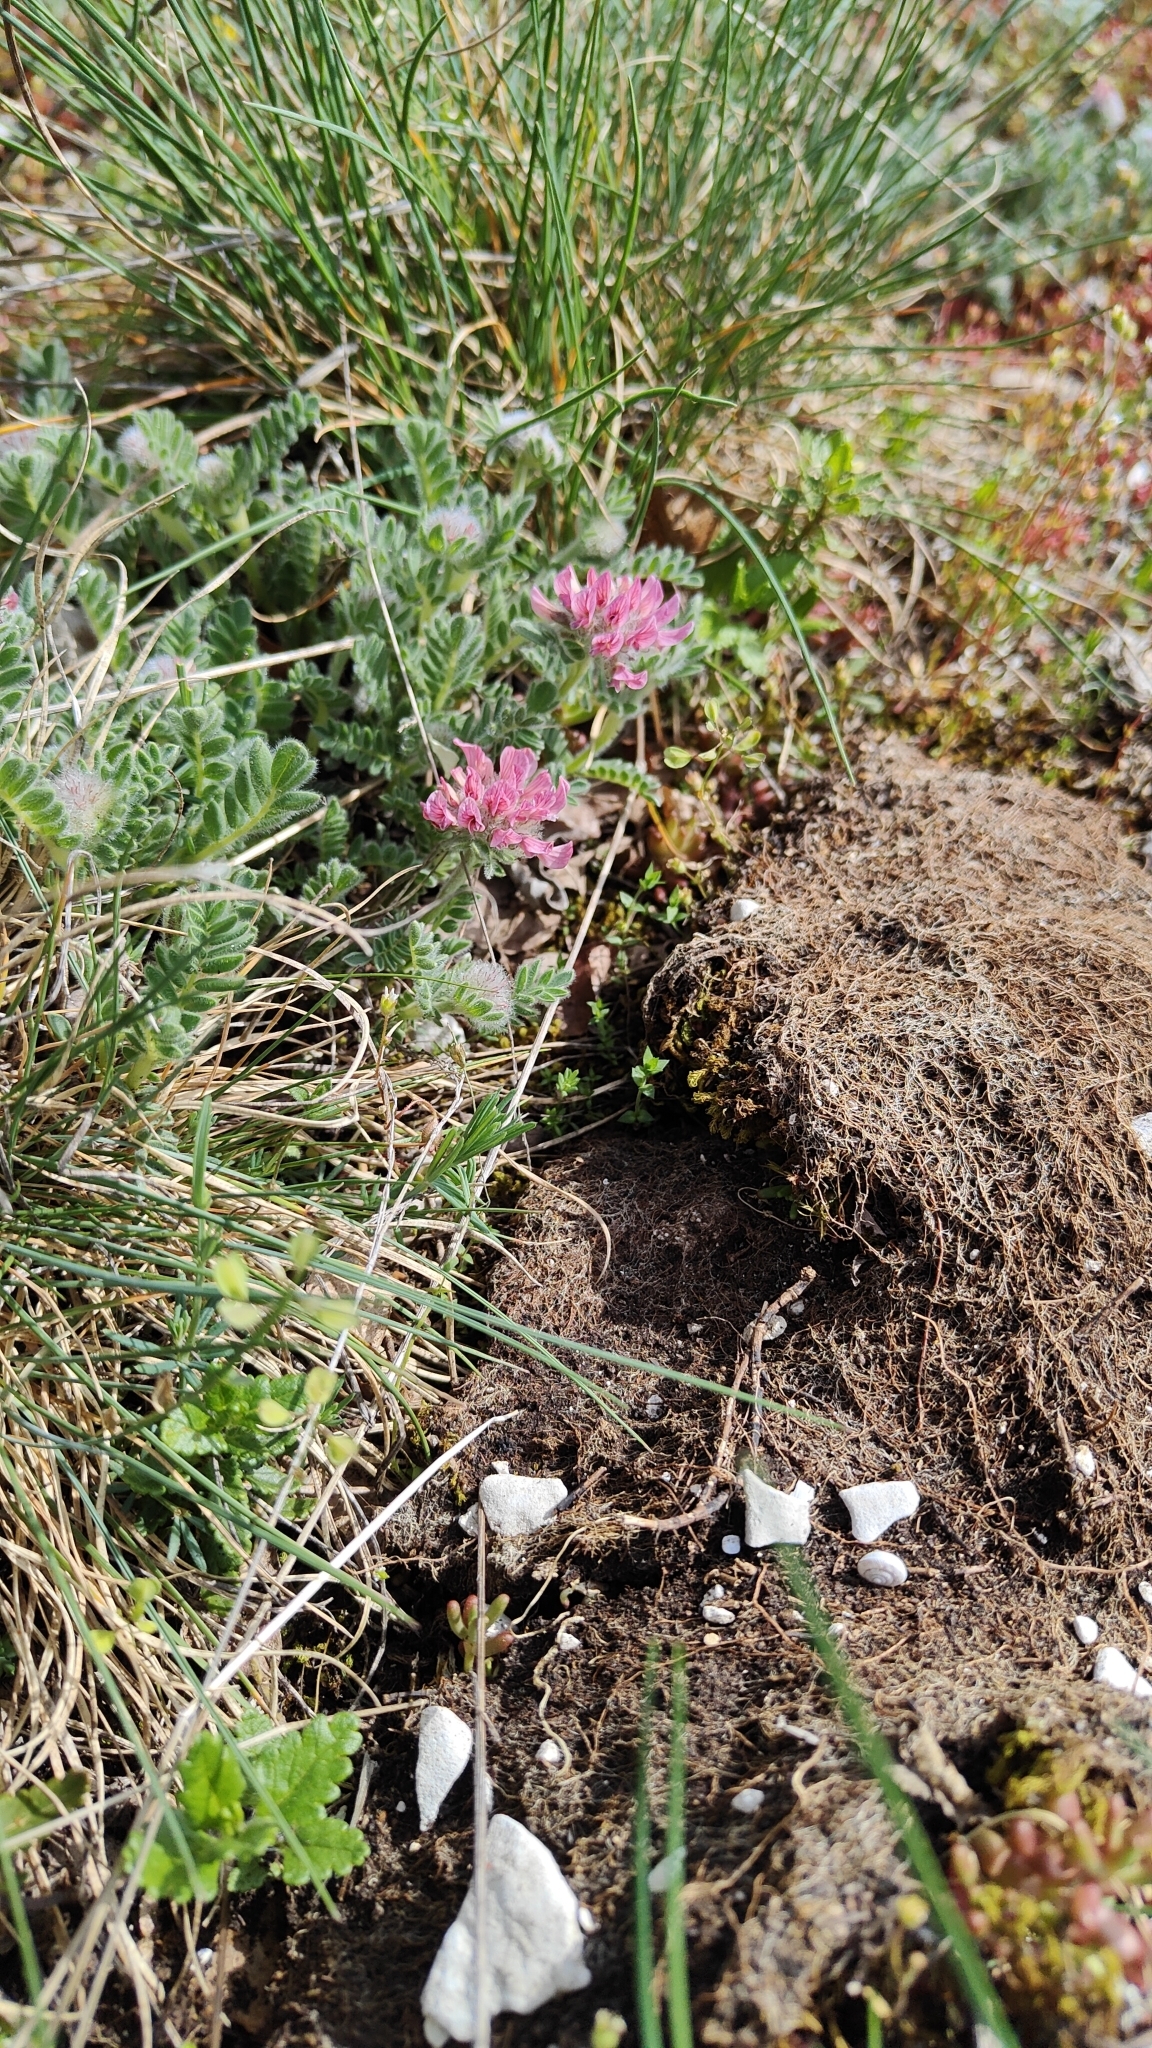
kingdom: Plantae
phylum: Tracheophyta
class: Magnoliopsida
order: Fabales
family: Fabaceae
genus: Anthyllis
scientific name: Anthyllis montana
